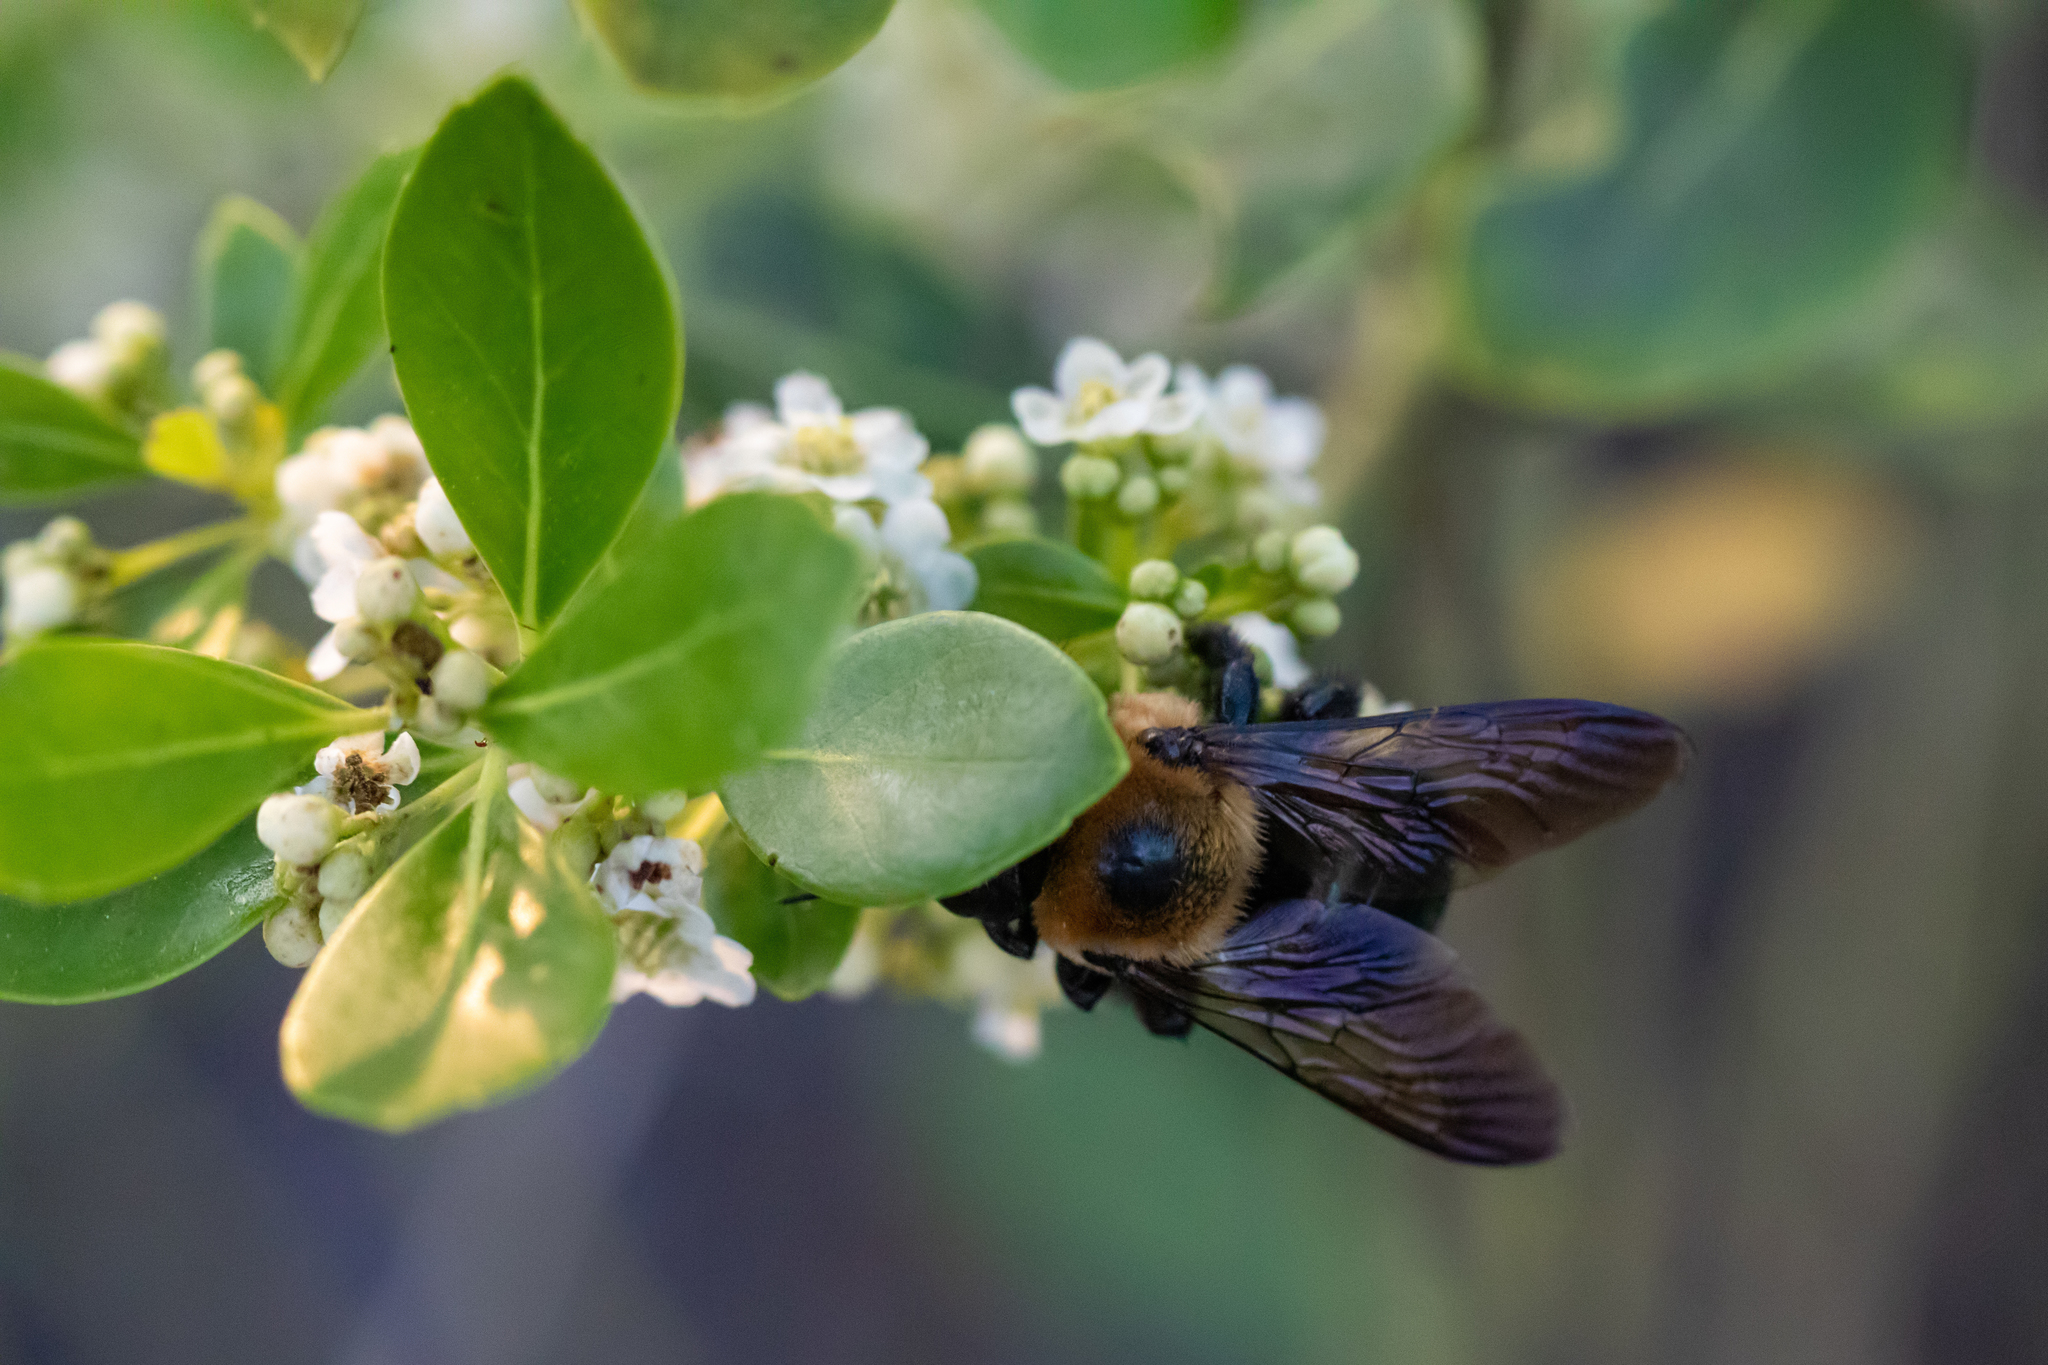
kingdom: Animalia
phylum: Arthropoda
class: Insecta
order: Hymenoptera
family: Apidae
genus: Xylocopa
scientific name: Xylocopa virginica
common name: Carpenter bee
